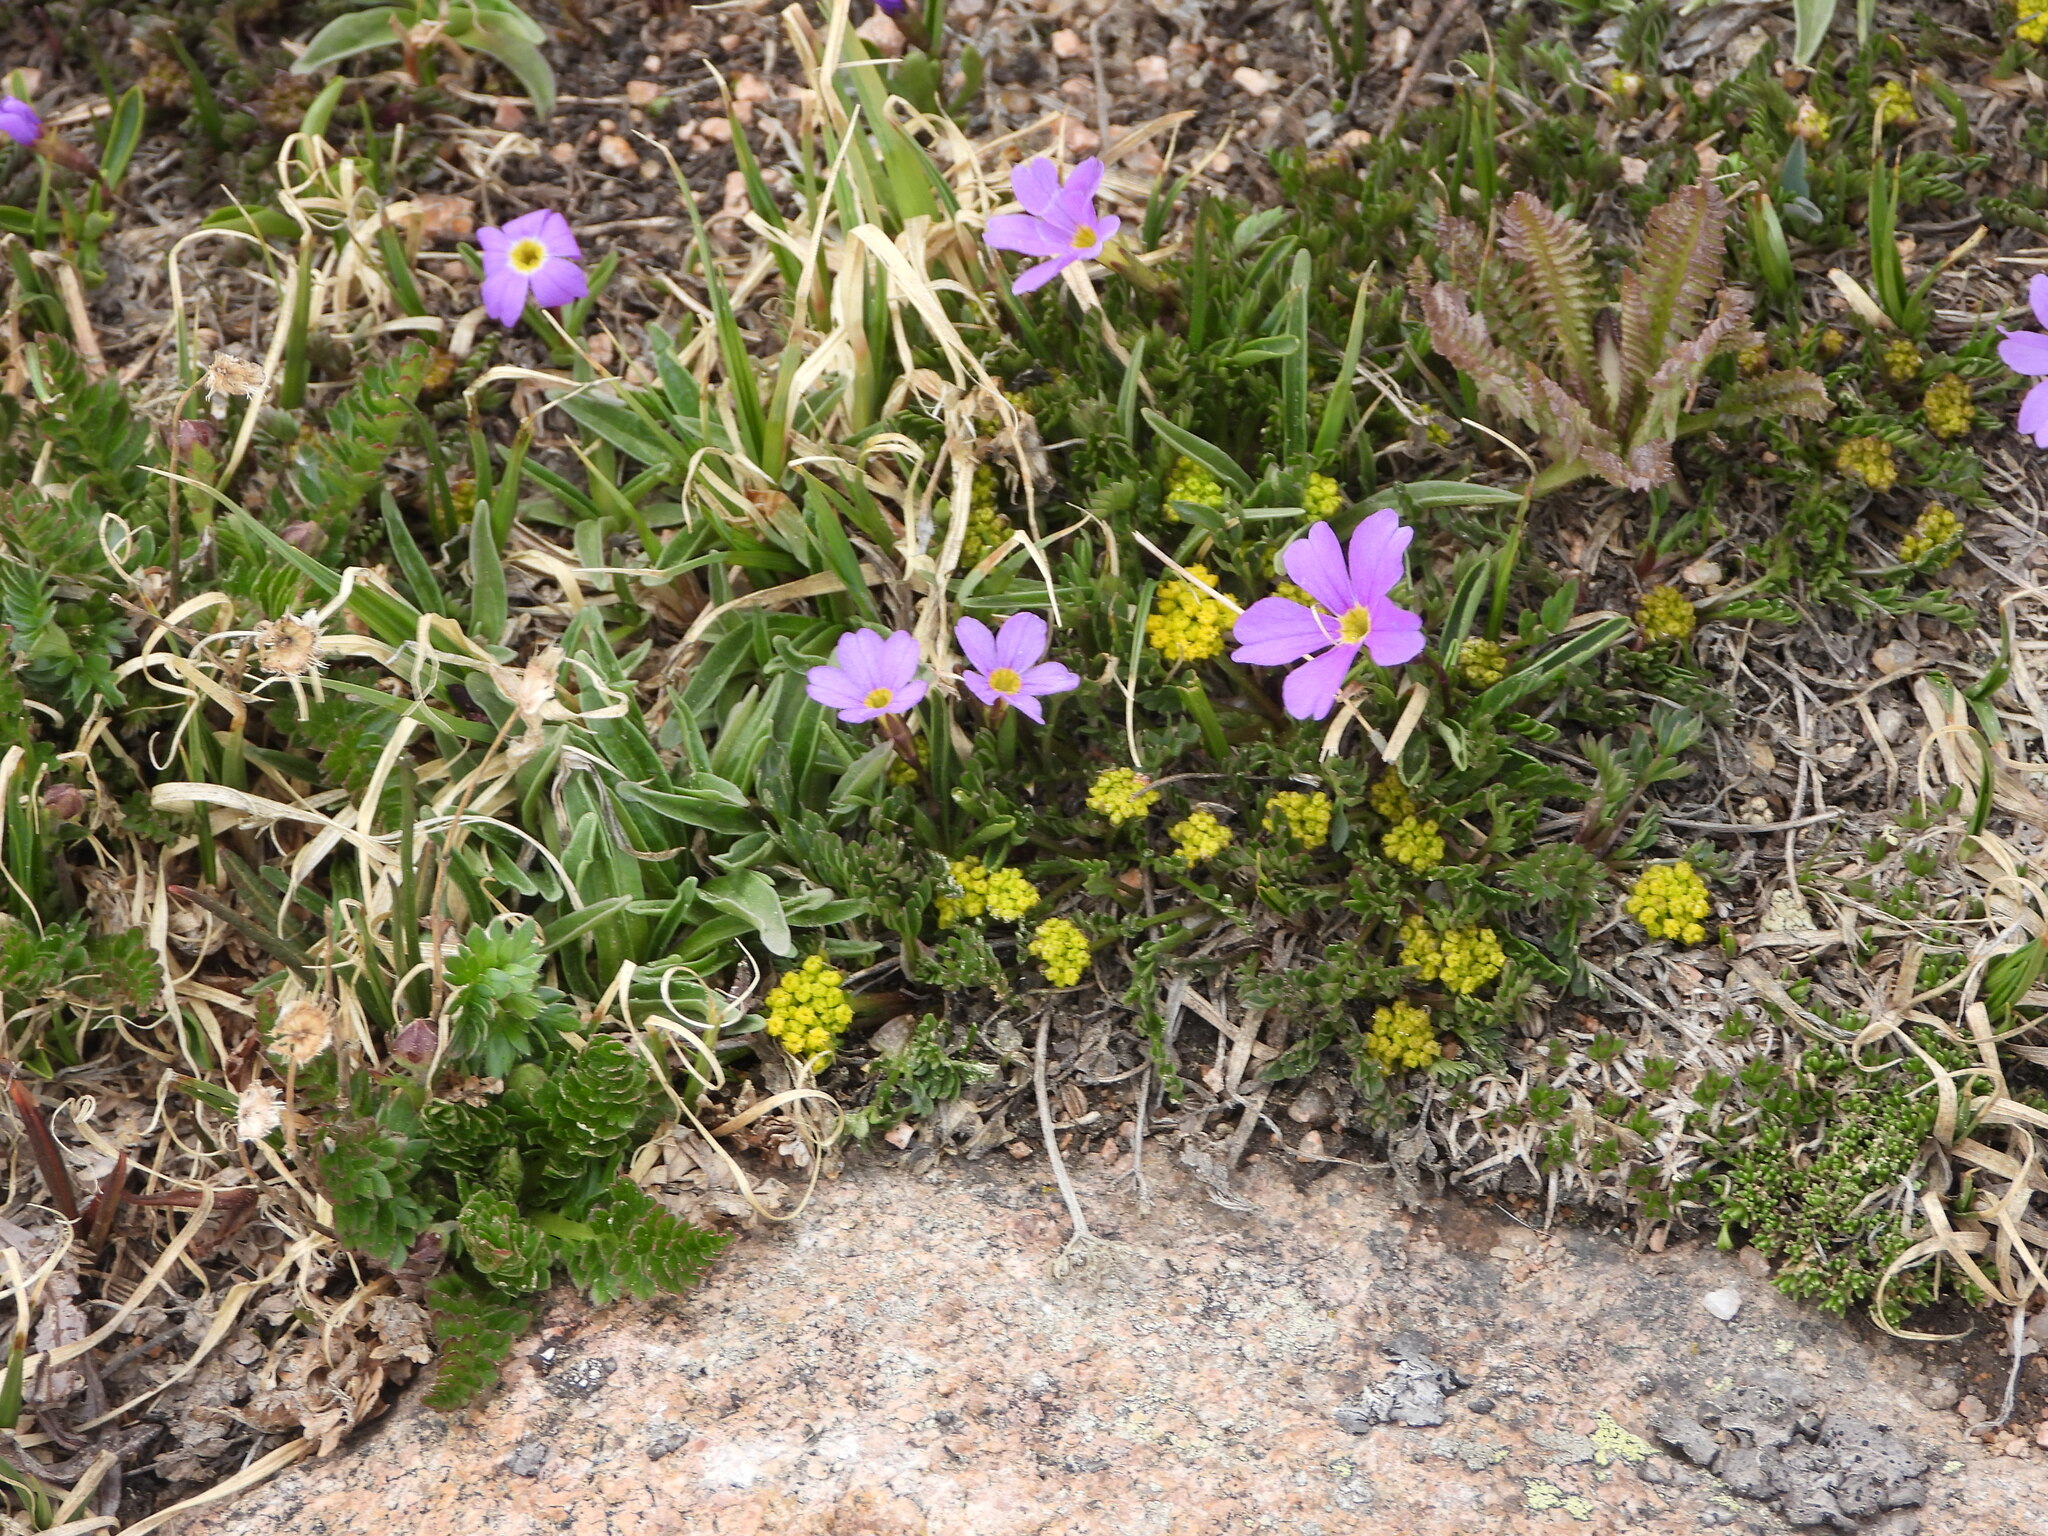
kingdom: Plantae
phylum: Tracheophyta
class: Magnoliopsida
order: Ericales
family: Primulaceae
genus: Primula
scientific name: Primula angustifolia
